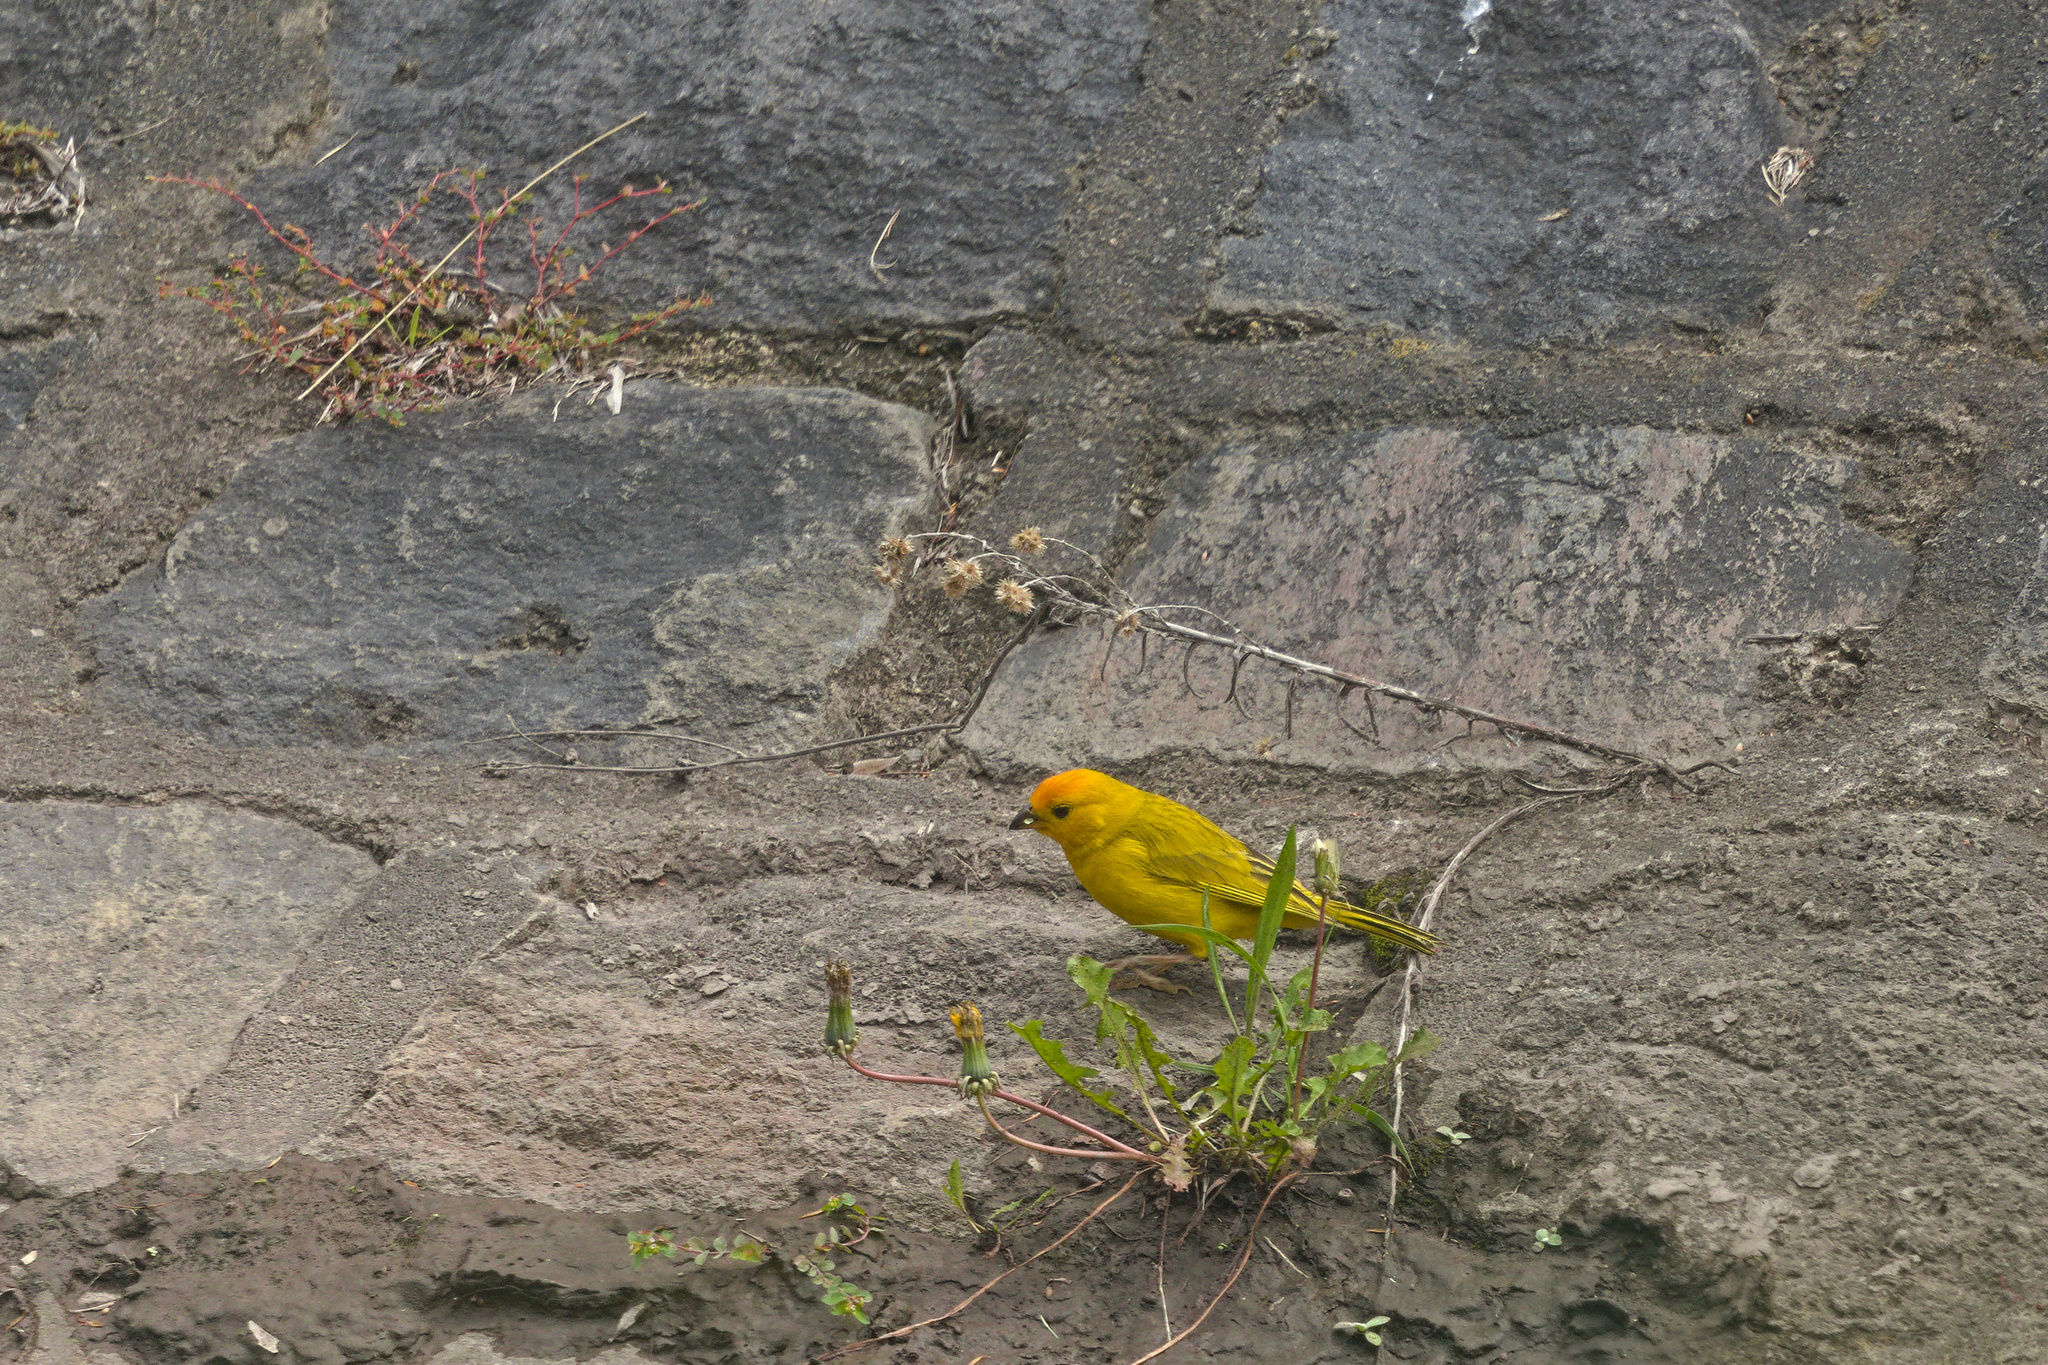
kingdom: Animalia
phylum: Chordata
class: Aves
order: Passeriformes
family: Thraupidae
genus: Sicalis
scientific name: Sicalis flaveola
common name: Saffron finch
